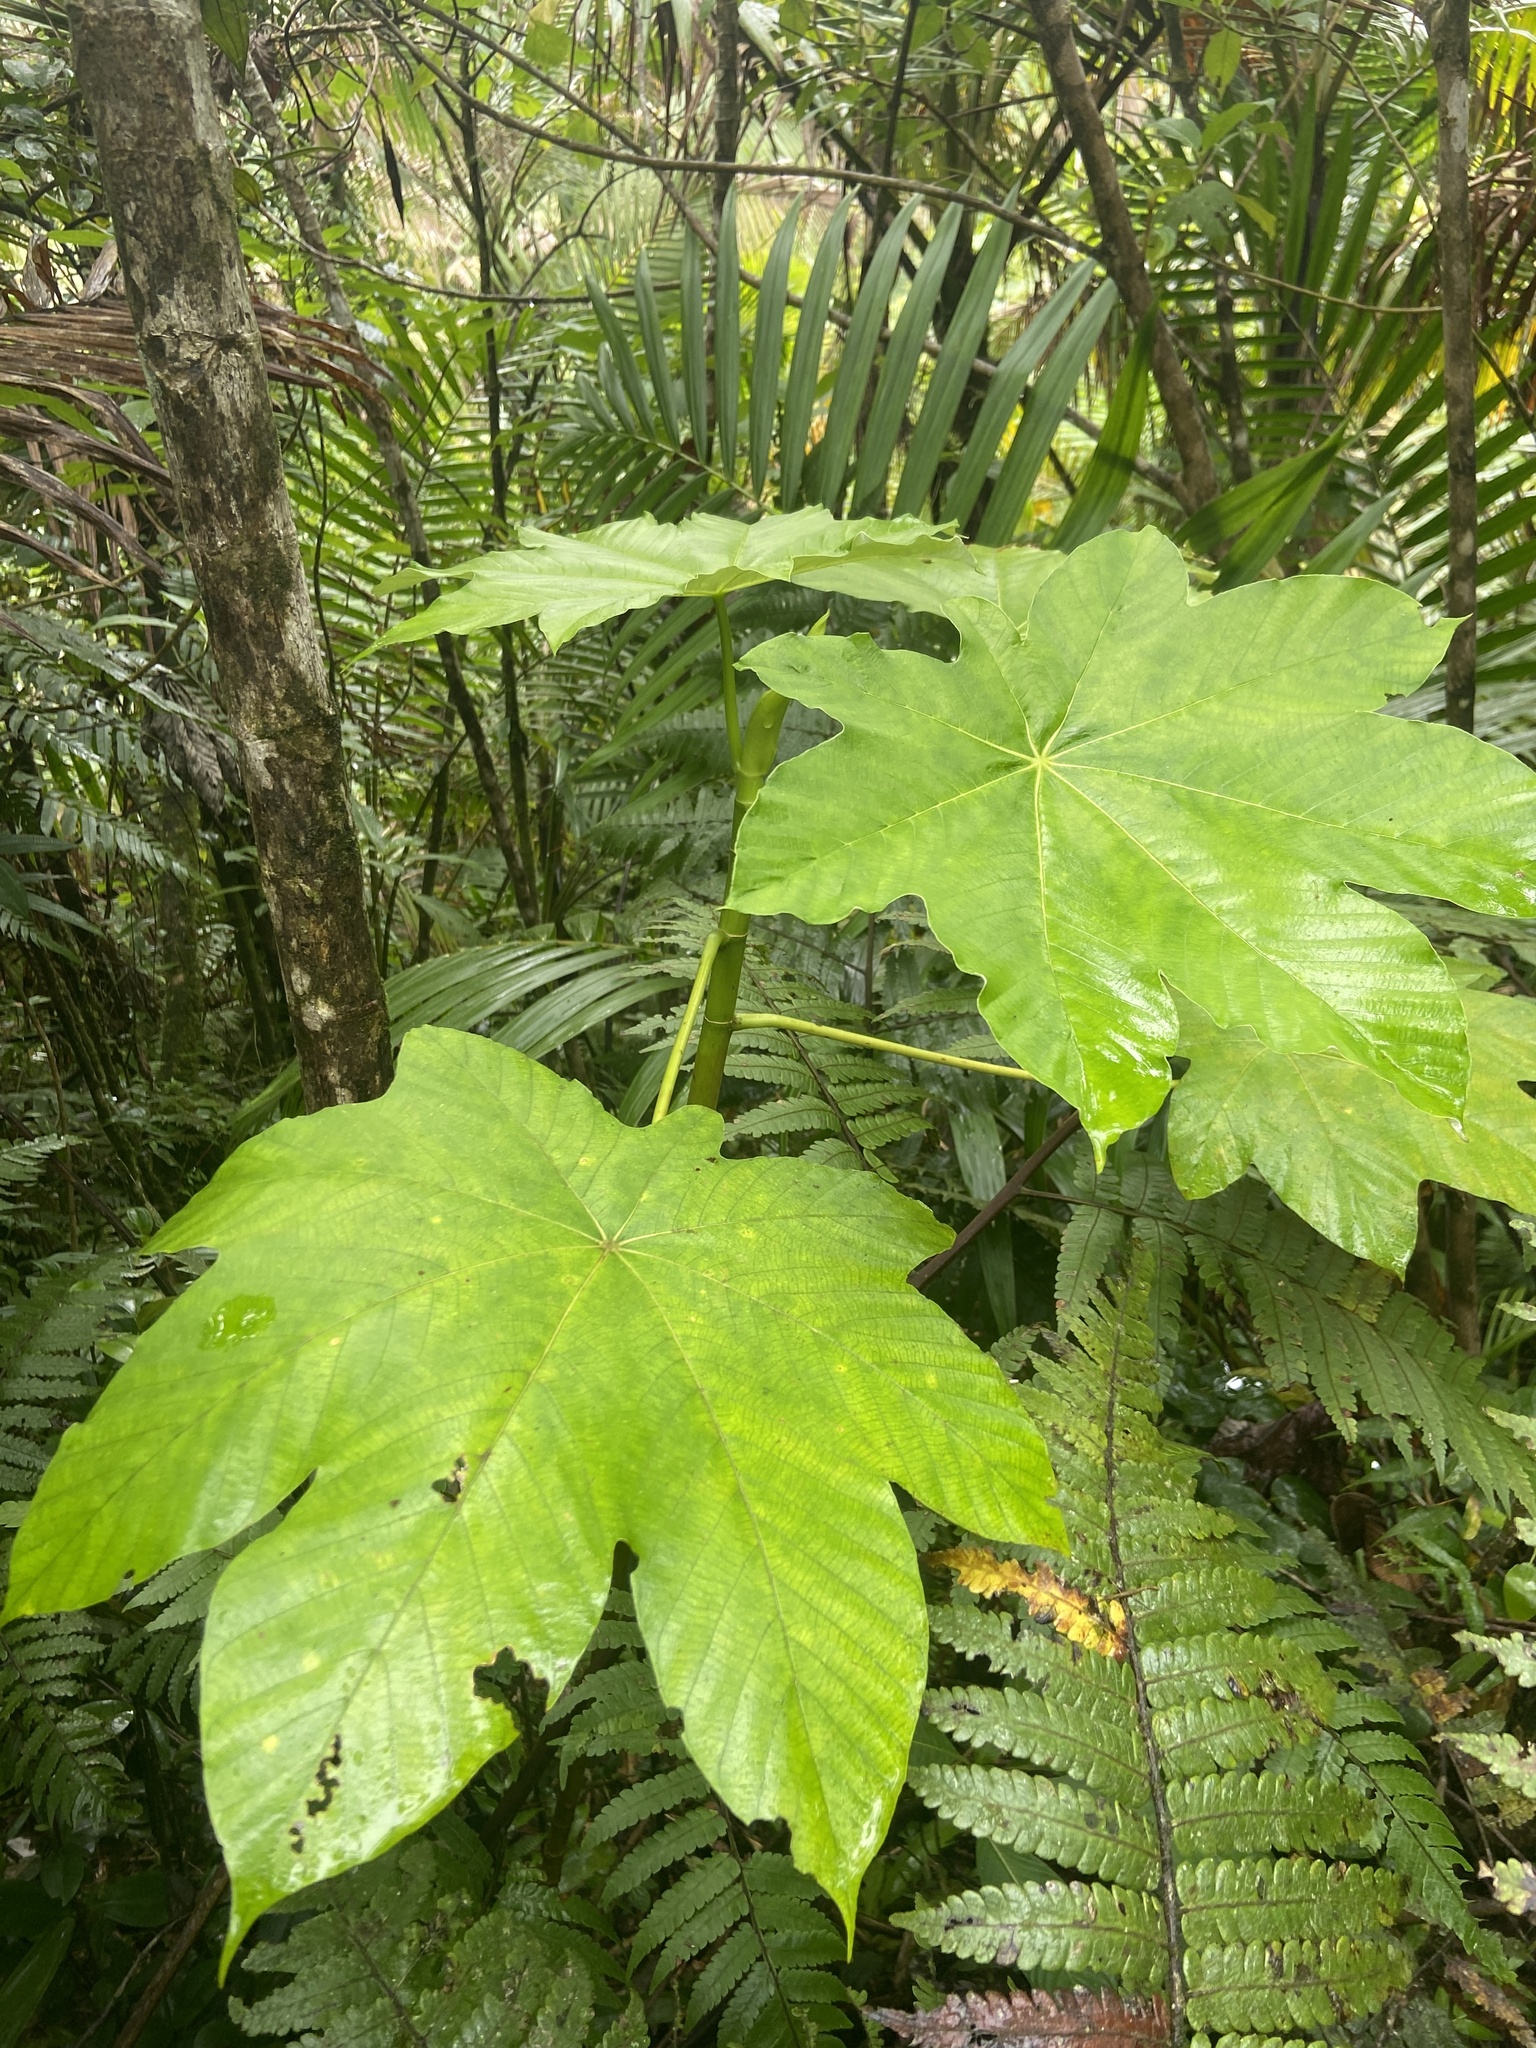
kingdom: Plantae
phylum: Tracheophyta
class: Magnoliopsida
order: Rosales
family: Urticaceae
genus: Cecropia
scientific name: Cecropia schreberiana
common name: Trumpet tree
